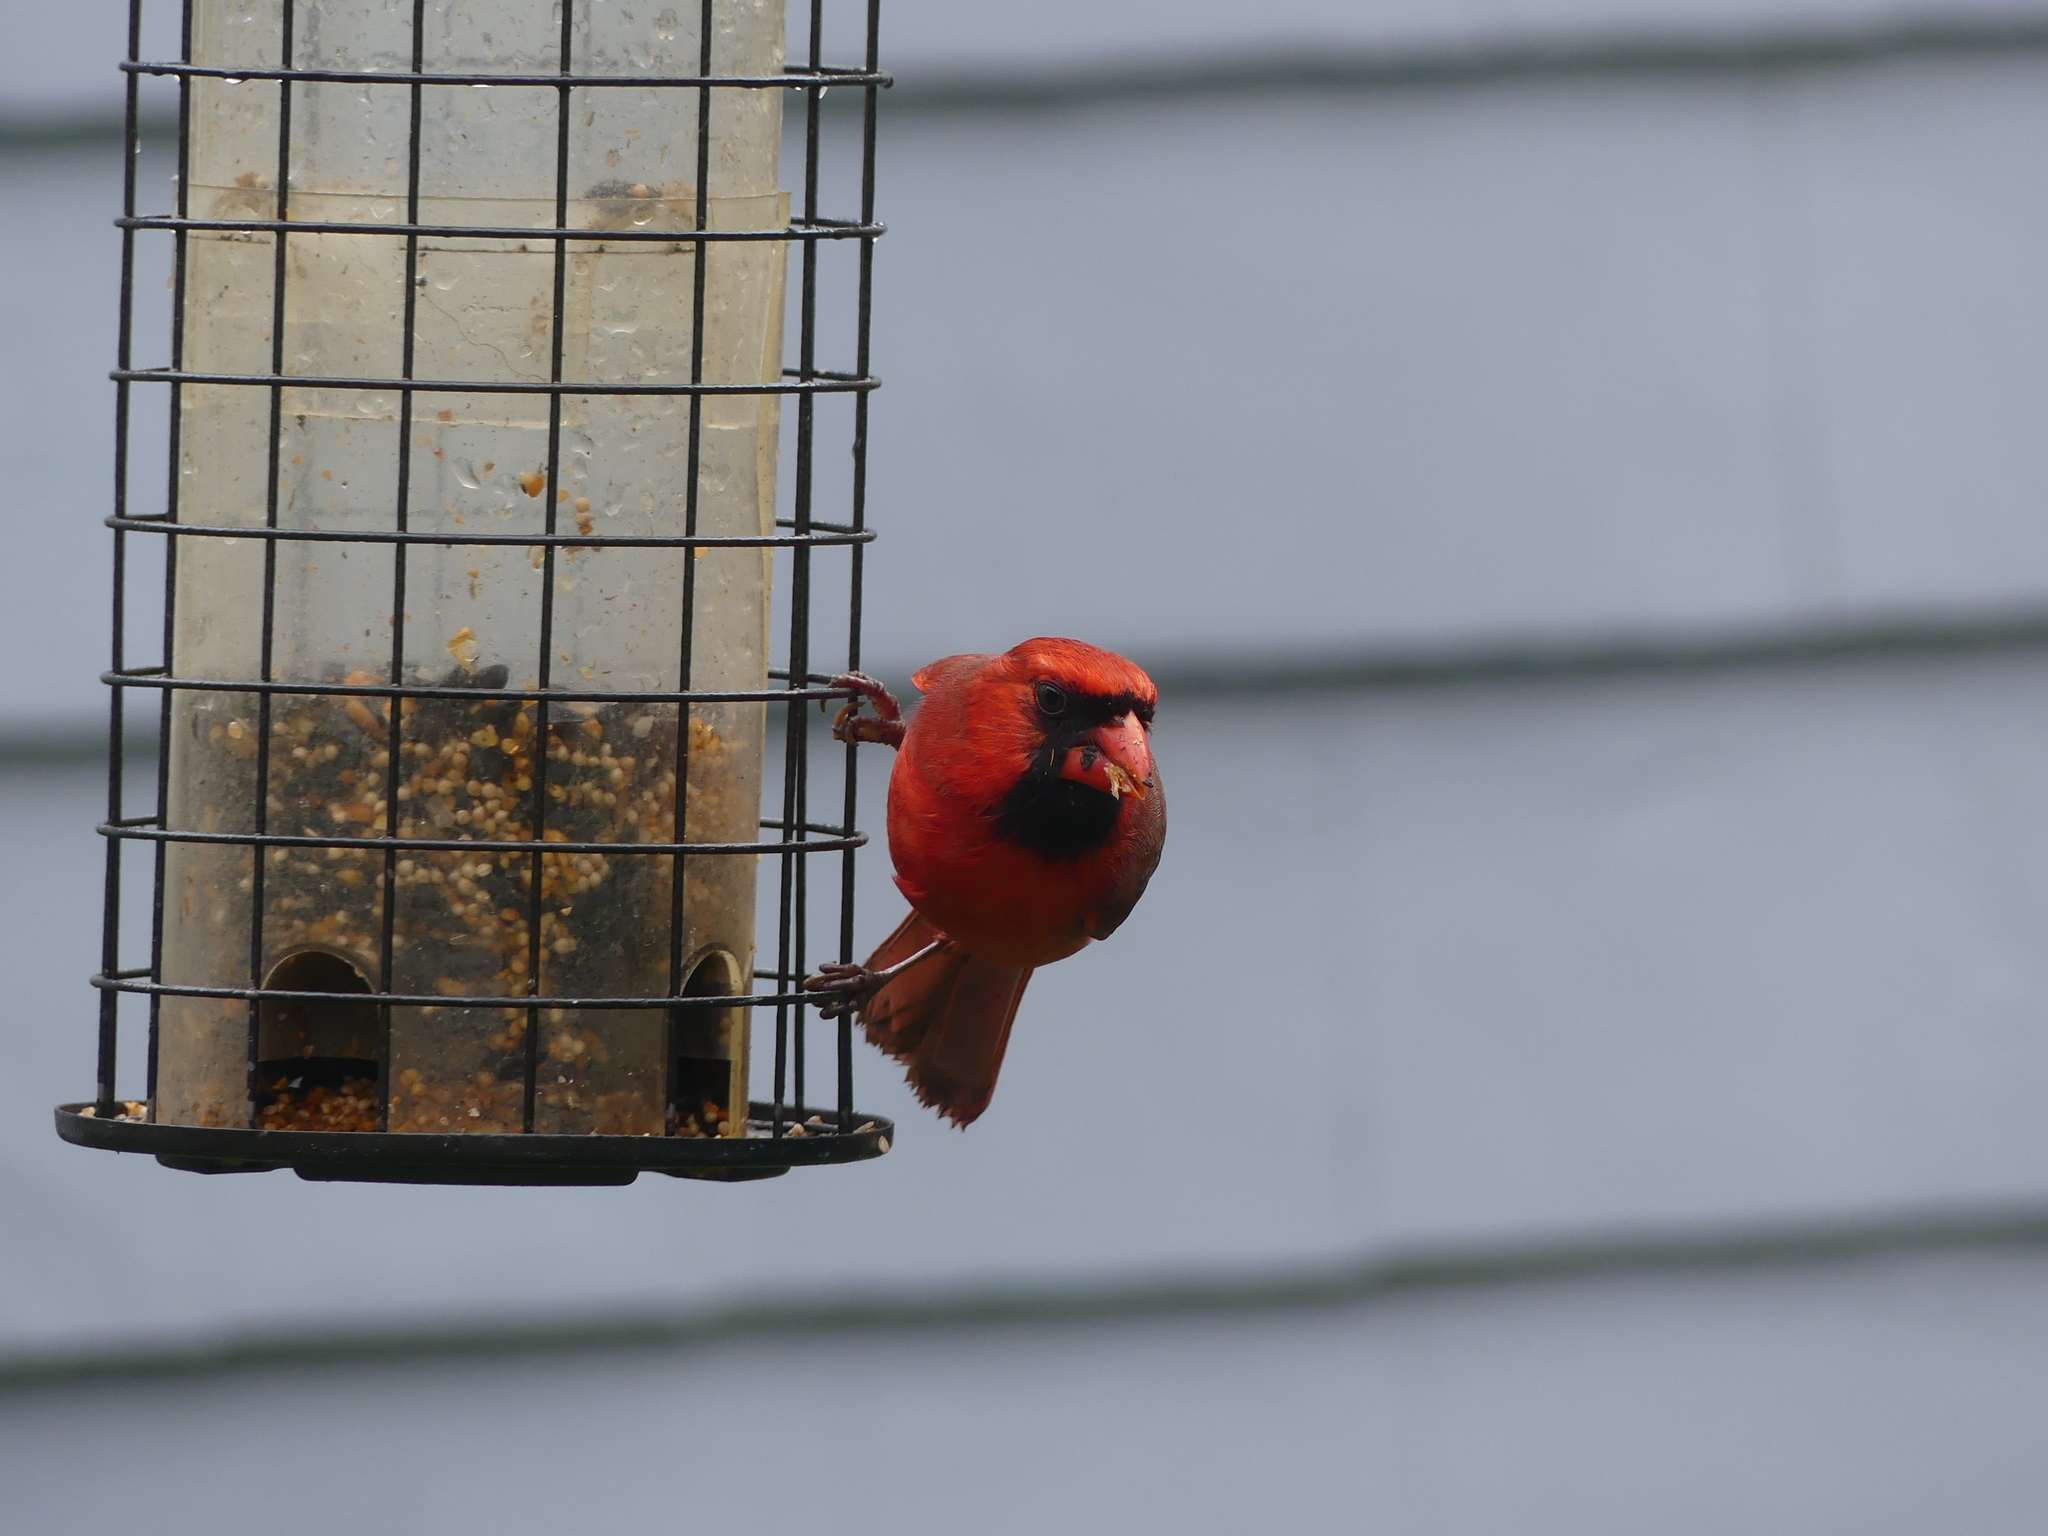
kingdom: Animalia
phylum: Chordata
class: Aves
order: Passeriformes
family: Cardinalidae
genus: Cardinalis
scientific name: Cardinalis cardinalis
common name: Northern cardinal
